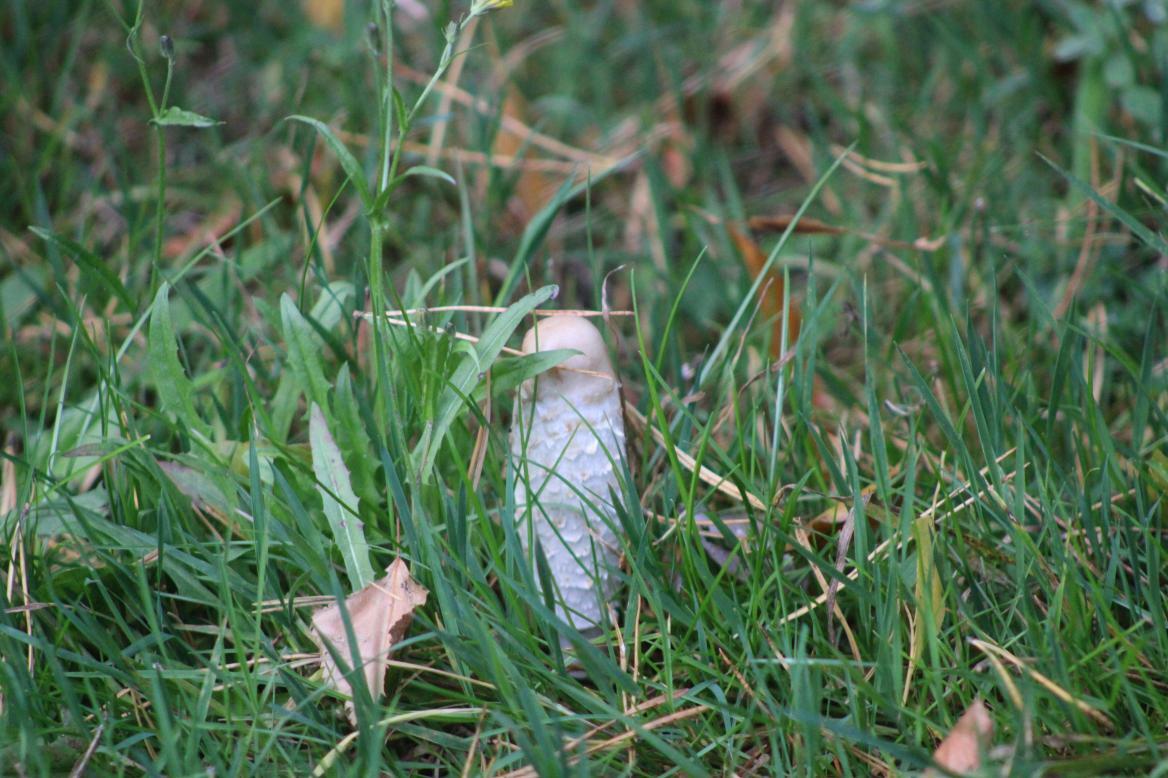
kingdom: Fungi
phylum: Basidiomycota
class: Agaricomycetes
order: Agaricales
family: Agaricaceae
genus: Coprinus
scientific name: Coprinus comatus
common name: Lawyer's wig
